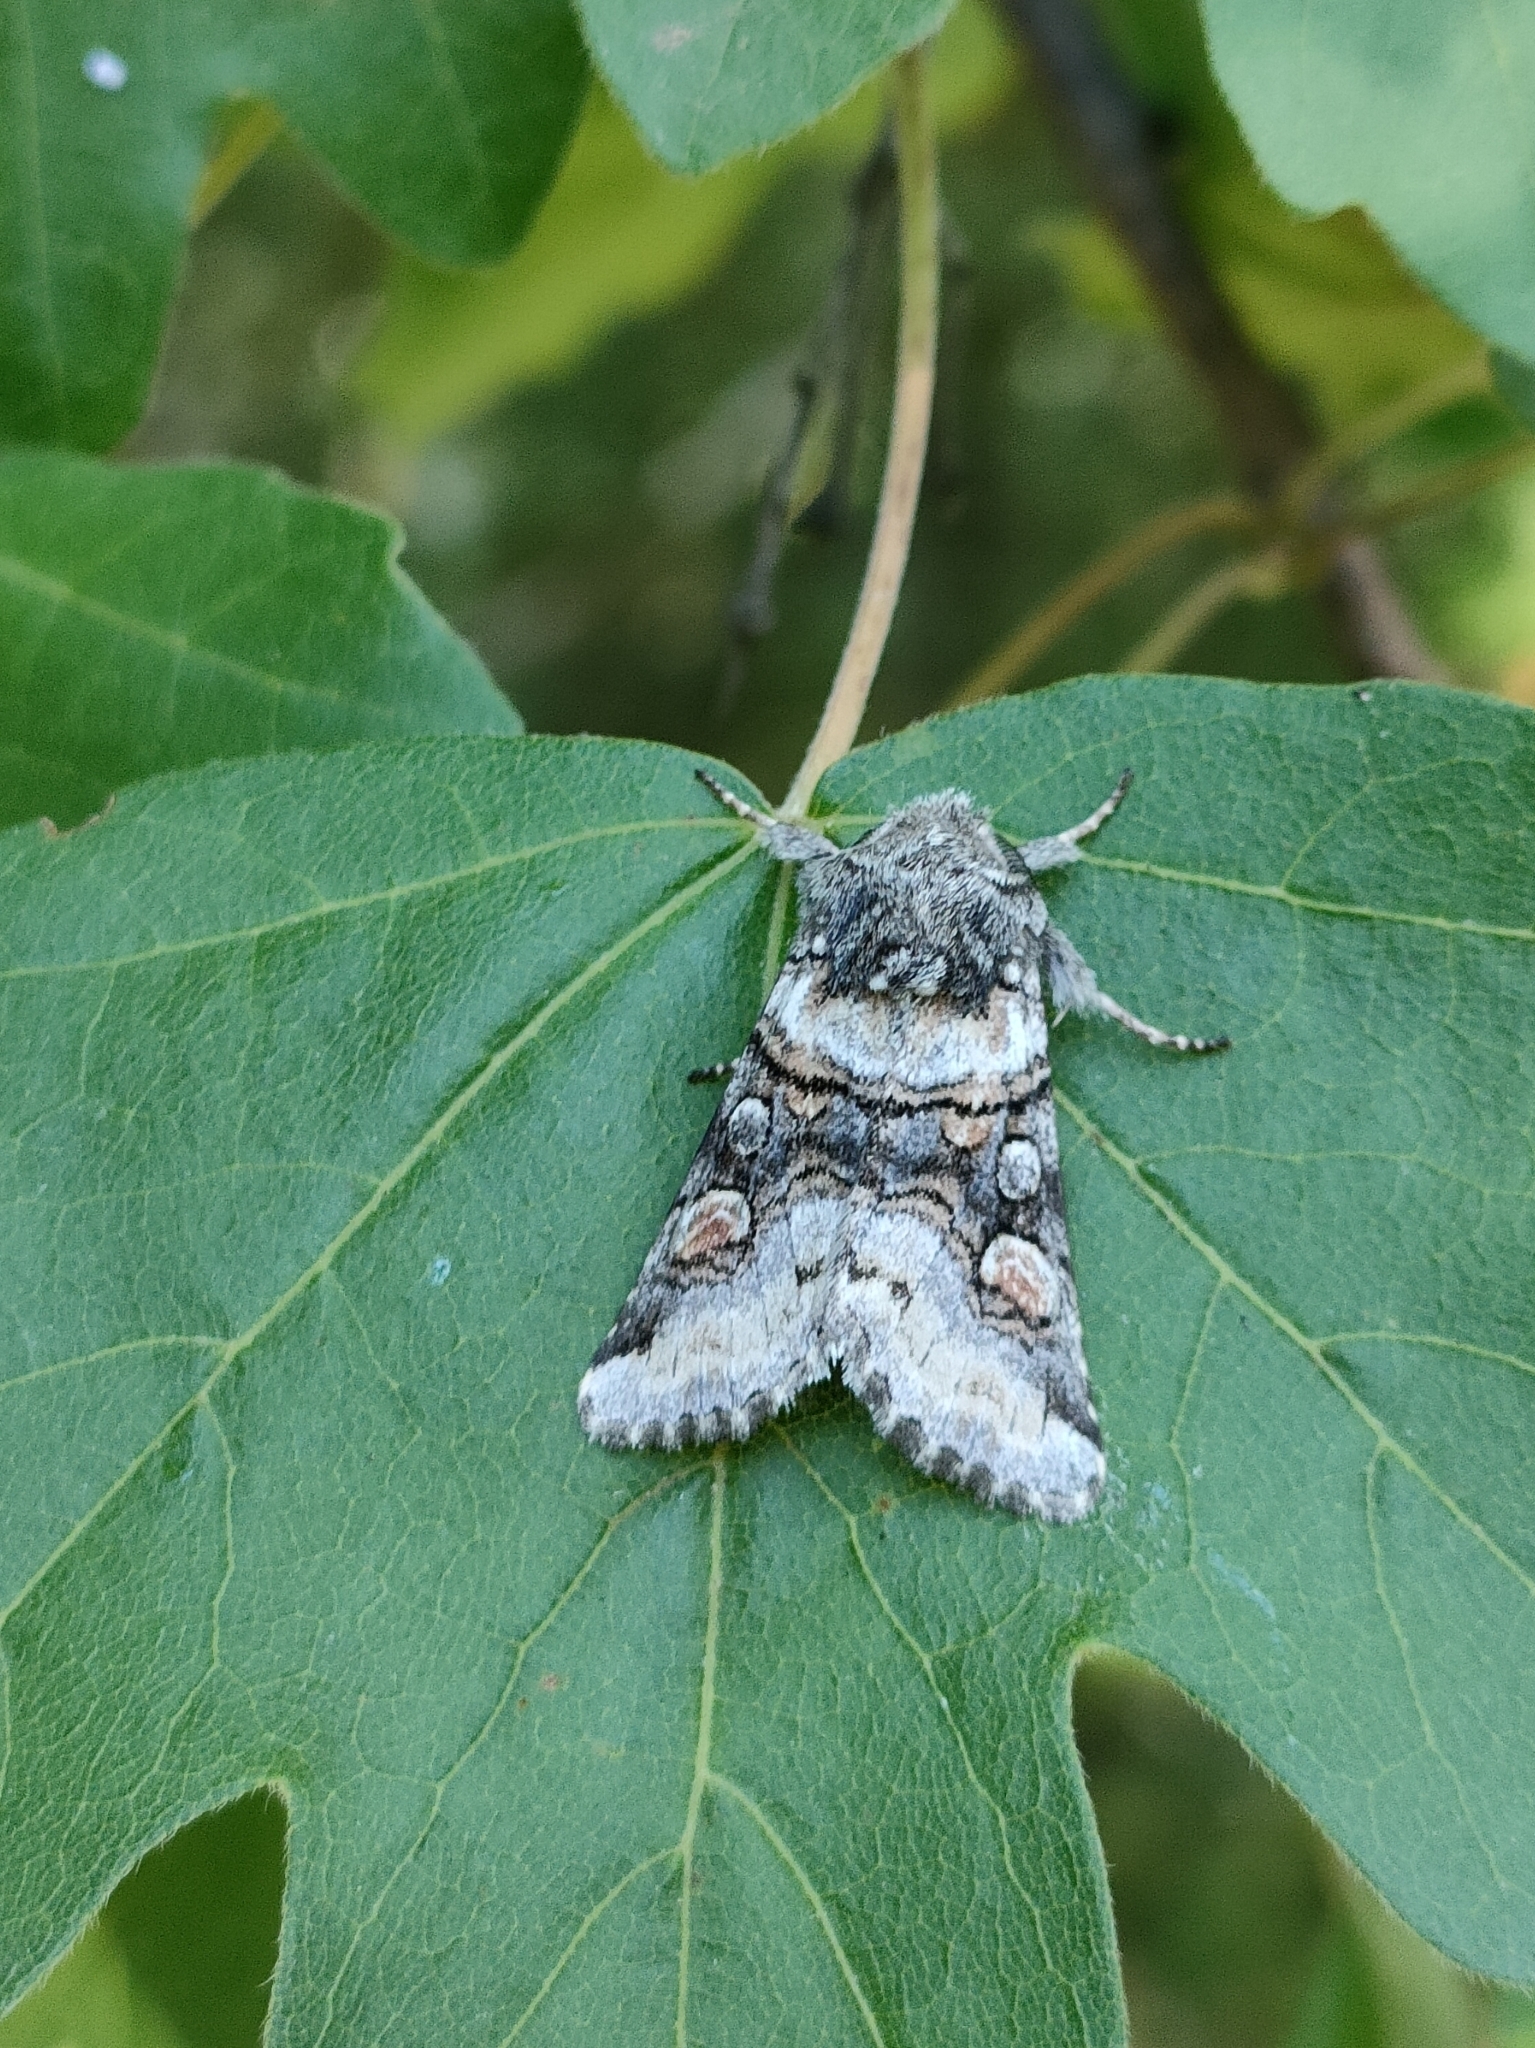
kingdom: Animalia
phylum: Arthropoda
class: Insecta
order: Lepidoptera
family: Noctuidae
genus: Cleoceris
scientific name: Cleoceris scoriacea
